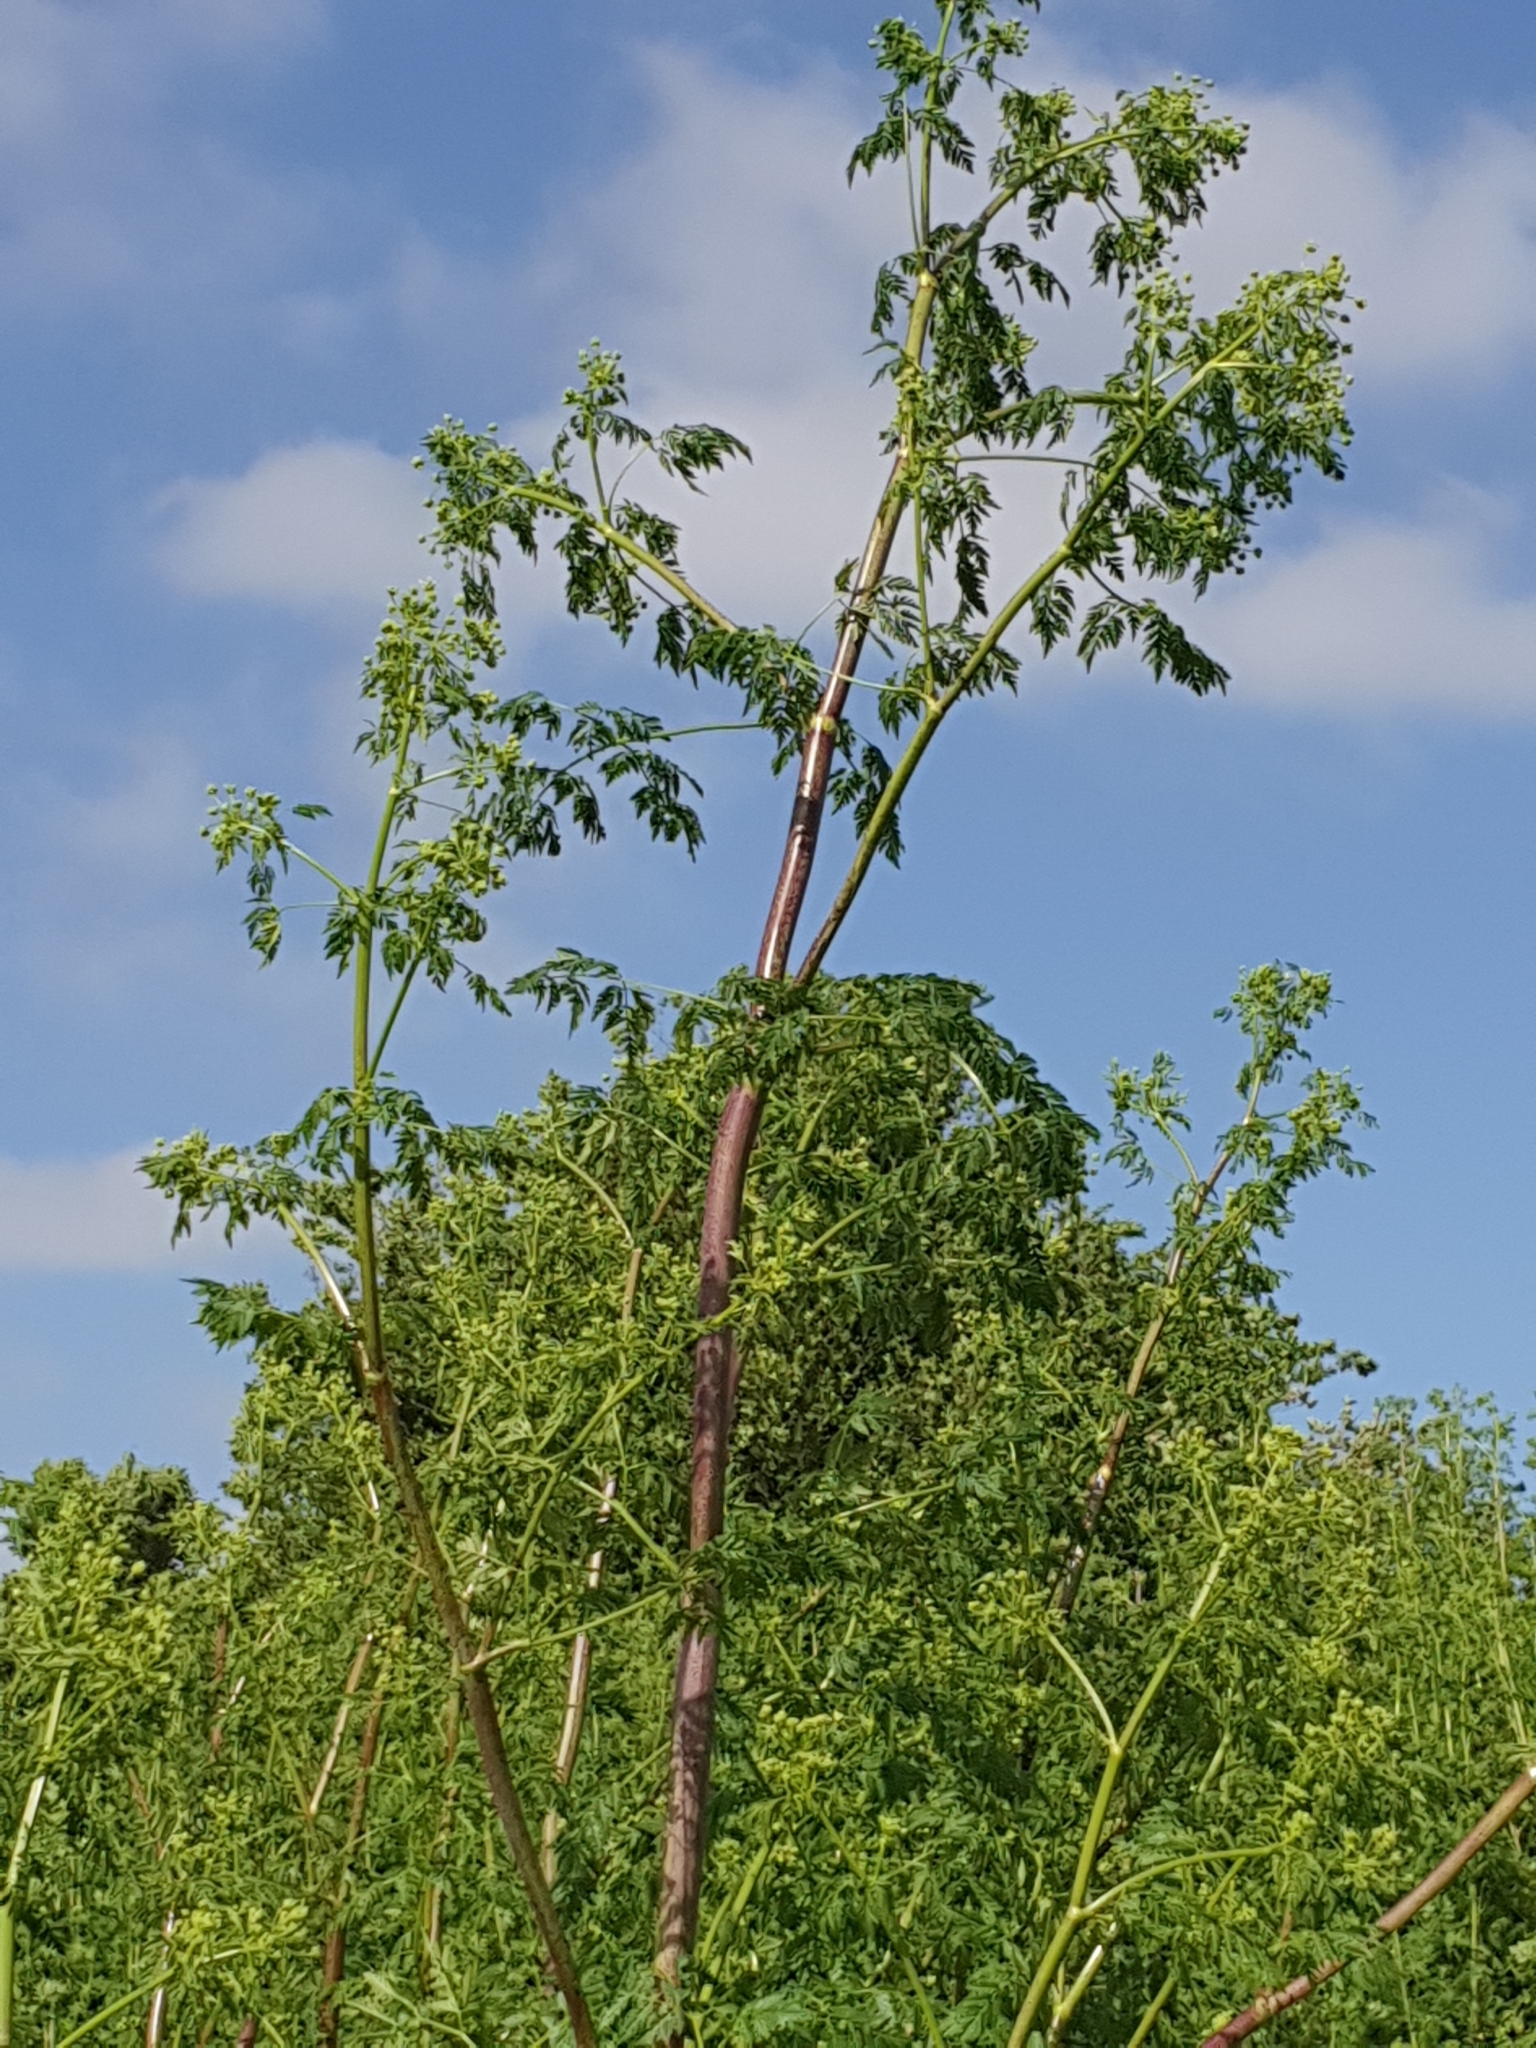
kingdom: Plantae
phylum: Tracheophyta
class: Magnoliopsida
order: Apiales
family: Apiaceae
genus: Conium
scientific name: Conium maculatum
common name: Hemlock
